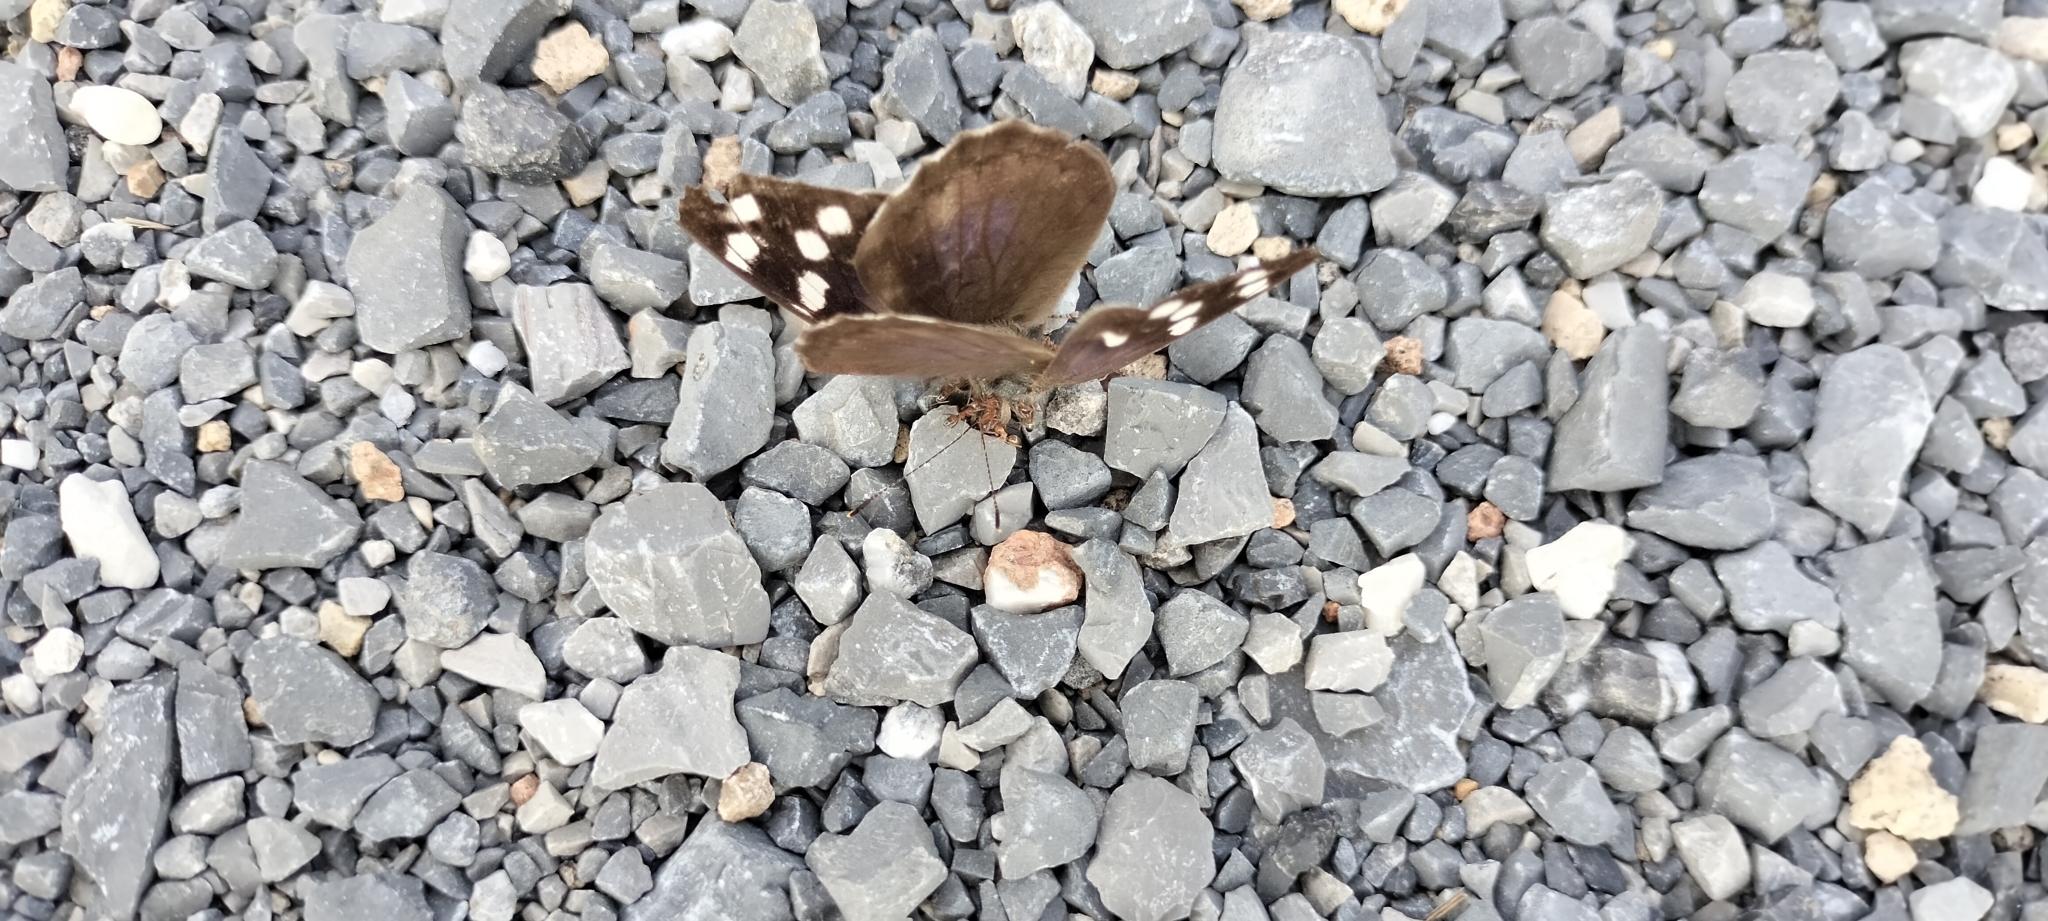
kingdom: Animalia
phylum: Arthropoda
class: Insecta
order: Lepidoptera
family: Nymphalidae
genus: Eunica
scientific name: Eunica tatila
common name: Florida purplewing
